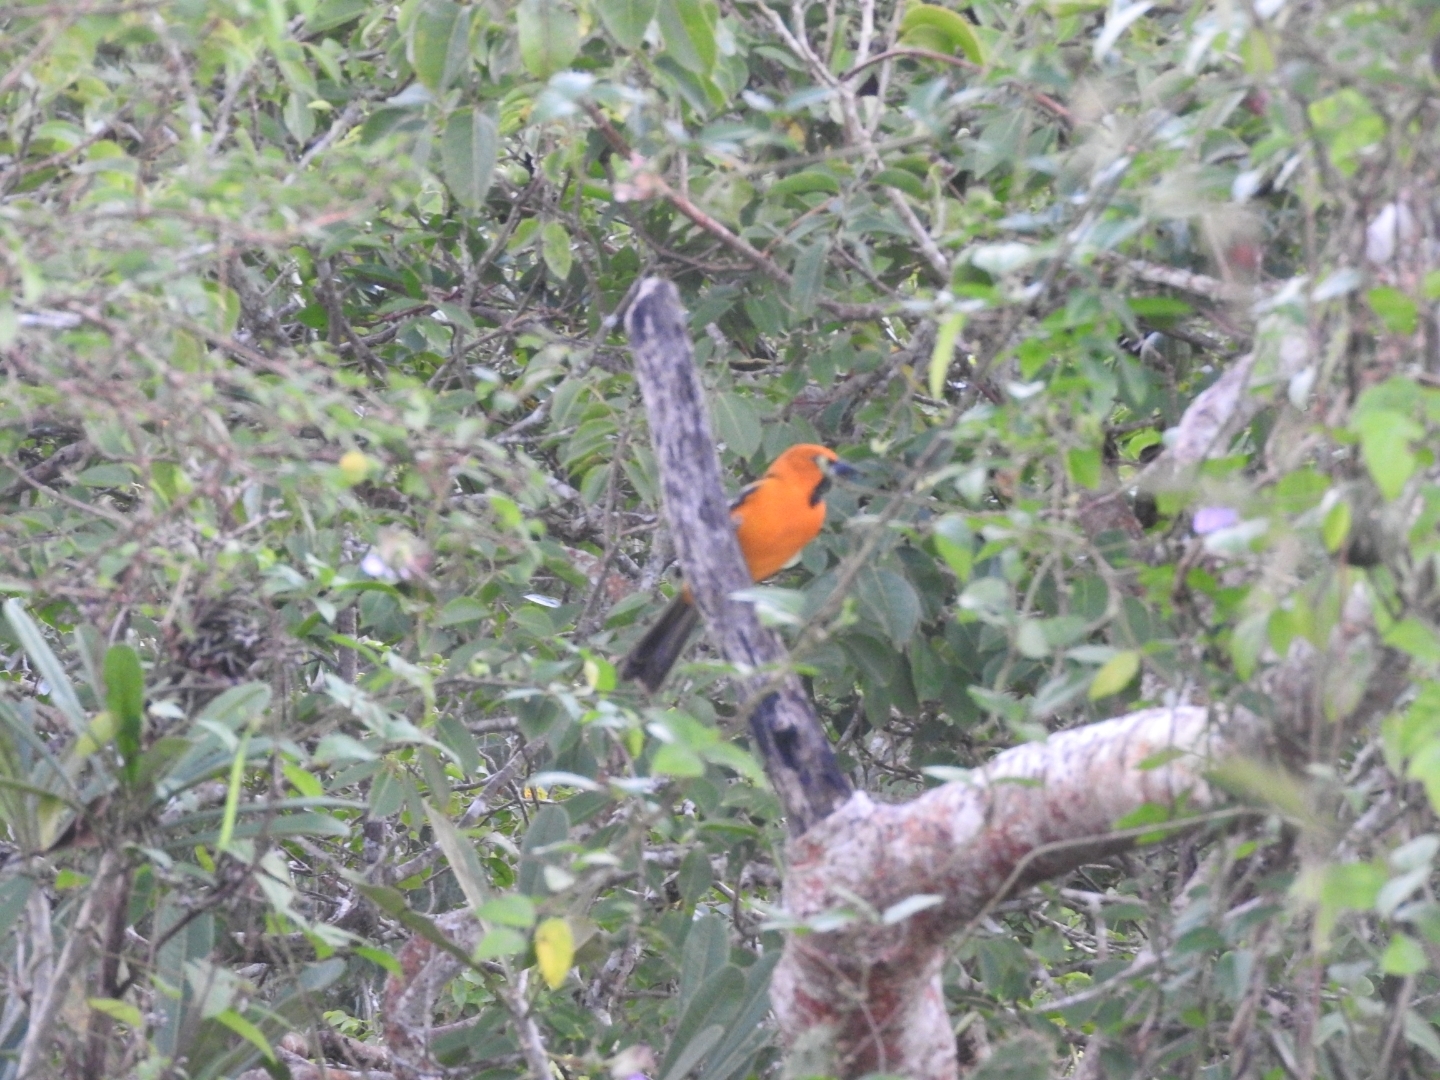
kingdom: Animalia
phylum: Chordata
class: Aves
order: Passeriformes
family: Icteridae
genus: Icterus
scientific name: Icterus gularis
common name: Altamira oriole
